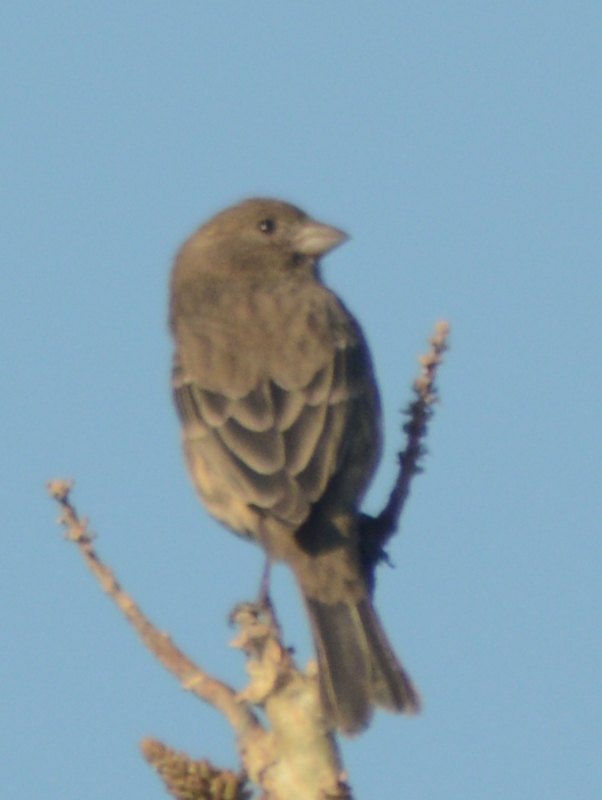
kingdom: Animalia
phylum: Chordata
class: Aves
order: Passeriformes
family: Fringillidae
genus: Haemorhous
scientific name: Haemorhous mexicanus
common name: House finch
